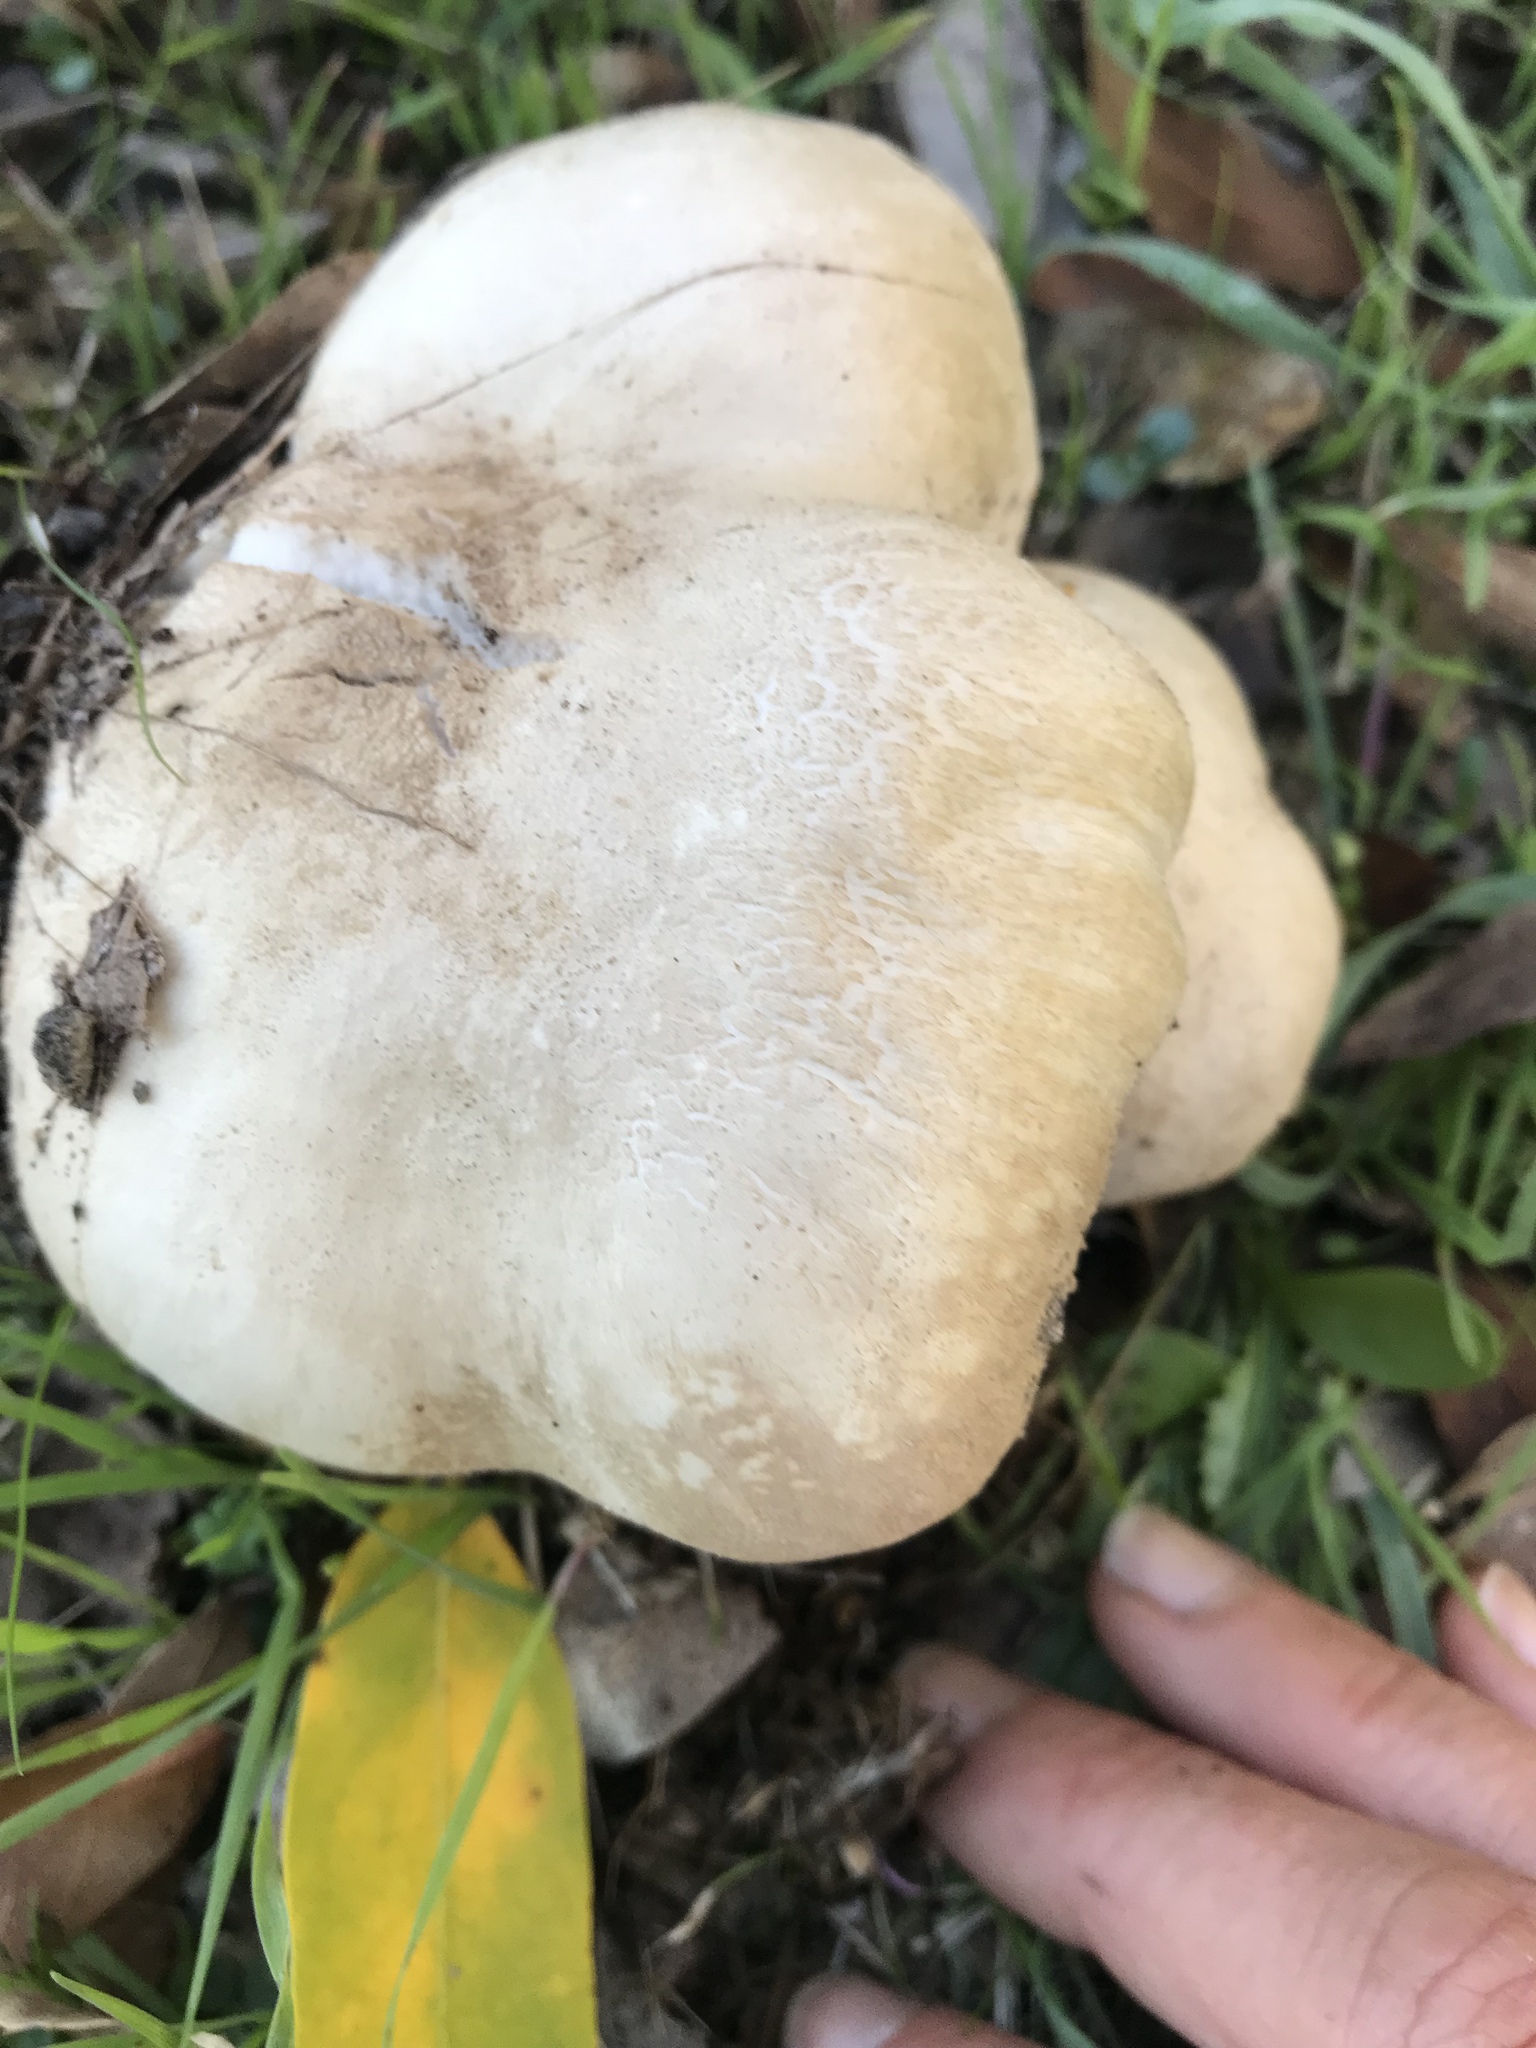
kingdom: Fungi
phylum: Basidiomycota
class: Agaricomycetes
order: Agaricales
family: Agaricaceae
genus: Agaricus
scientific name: Agaricus xanthodermus
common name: Yellow stainer
